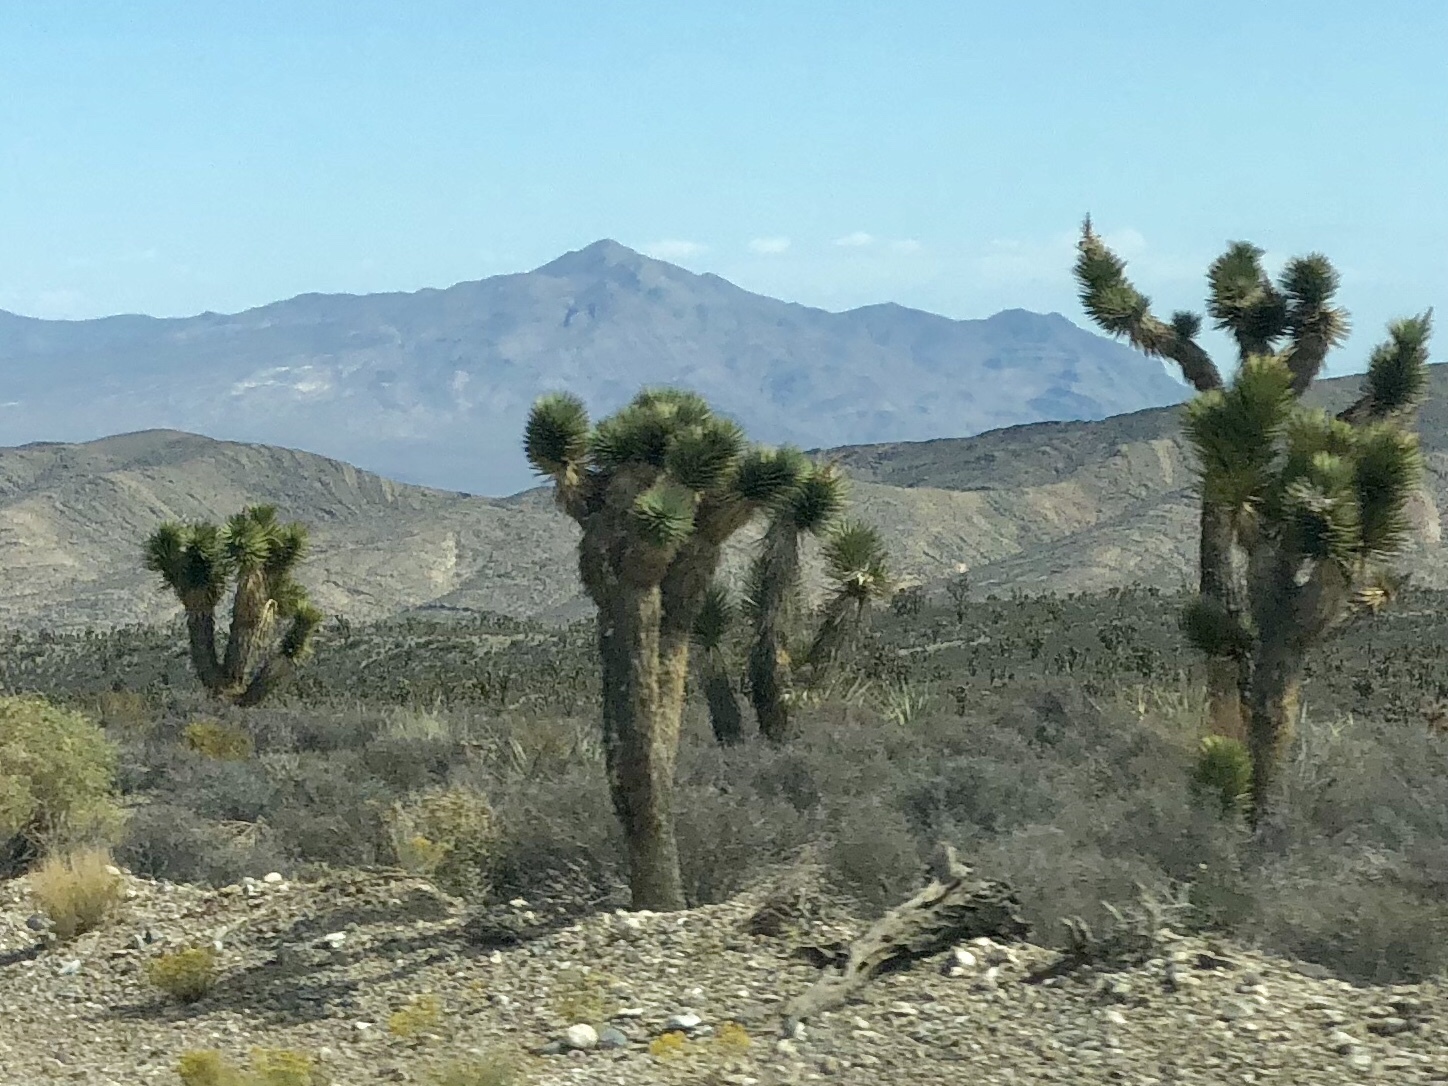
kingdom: Plantae
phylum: Tracheophyta
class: Liliopsida
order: Asparagales
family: Asparagaceae
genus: Yucca
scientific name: Yucca brevifolia
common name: Joshua tree
